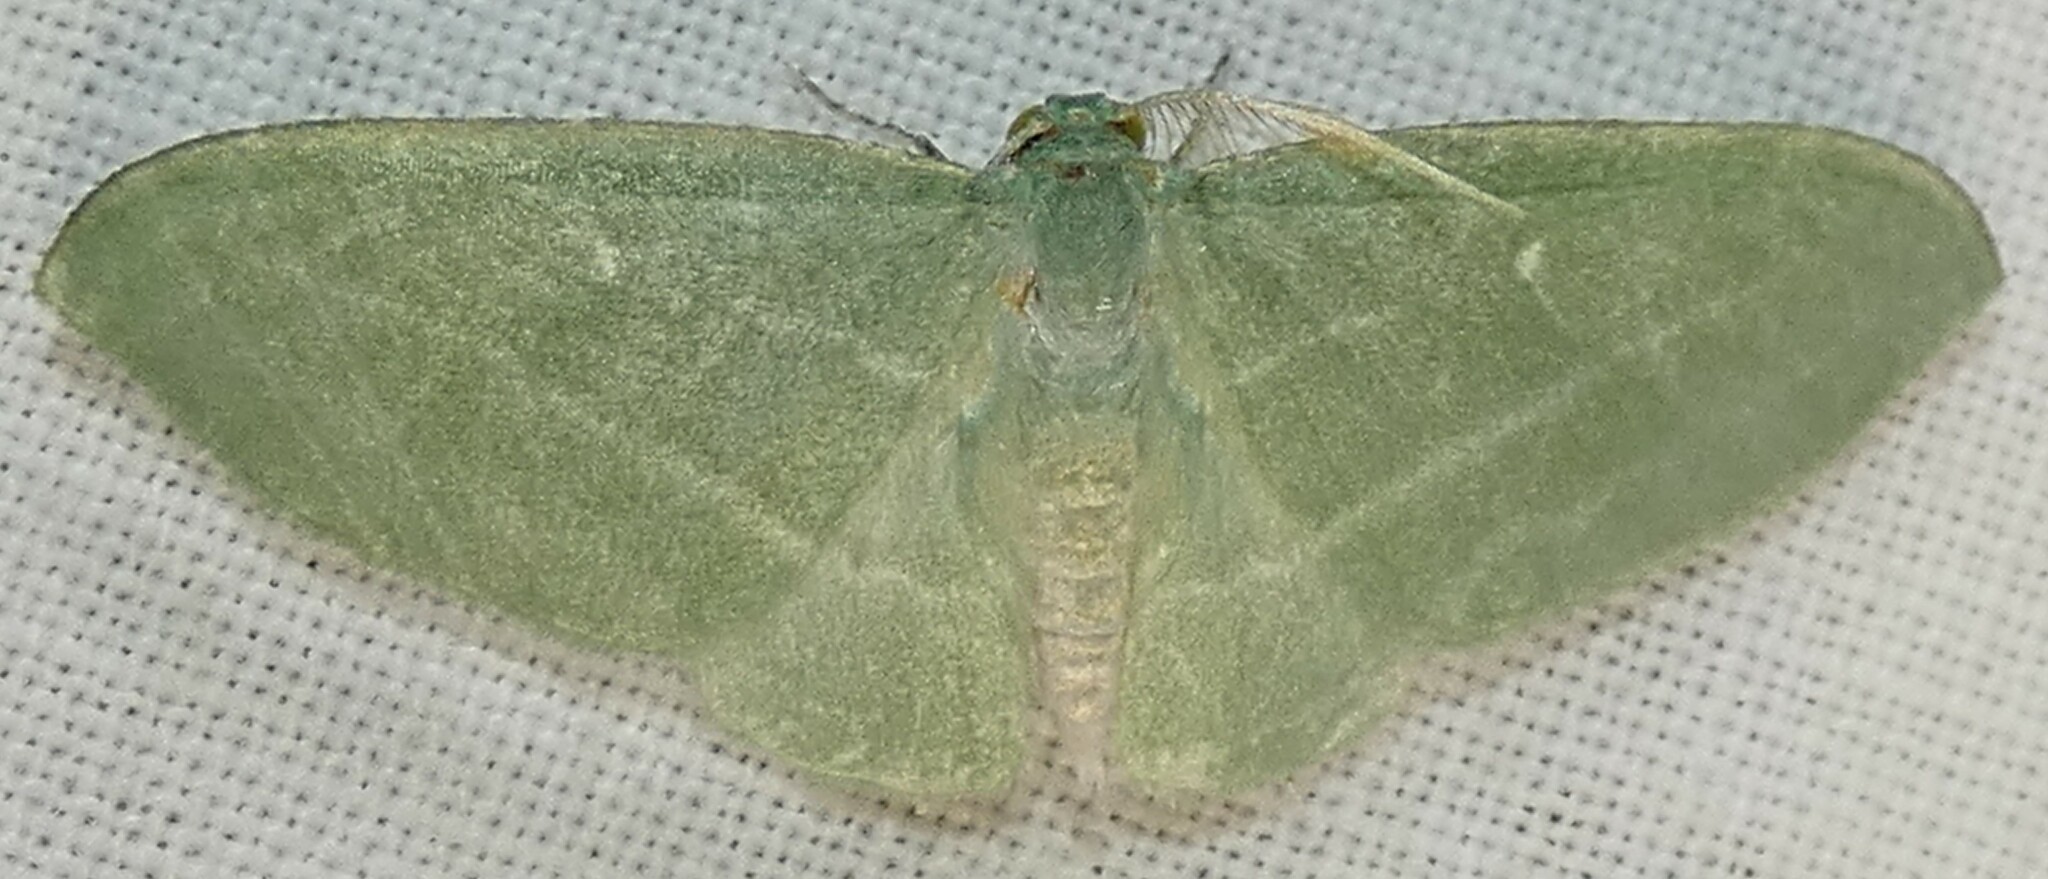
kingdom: Animalia
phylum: Arthropoda
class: Insecta
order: Lepidoptera
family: Geometridae
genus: Dyspteris
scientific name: Dyspteris abortivaria
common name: Bad-wing
